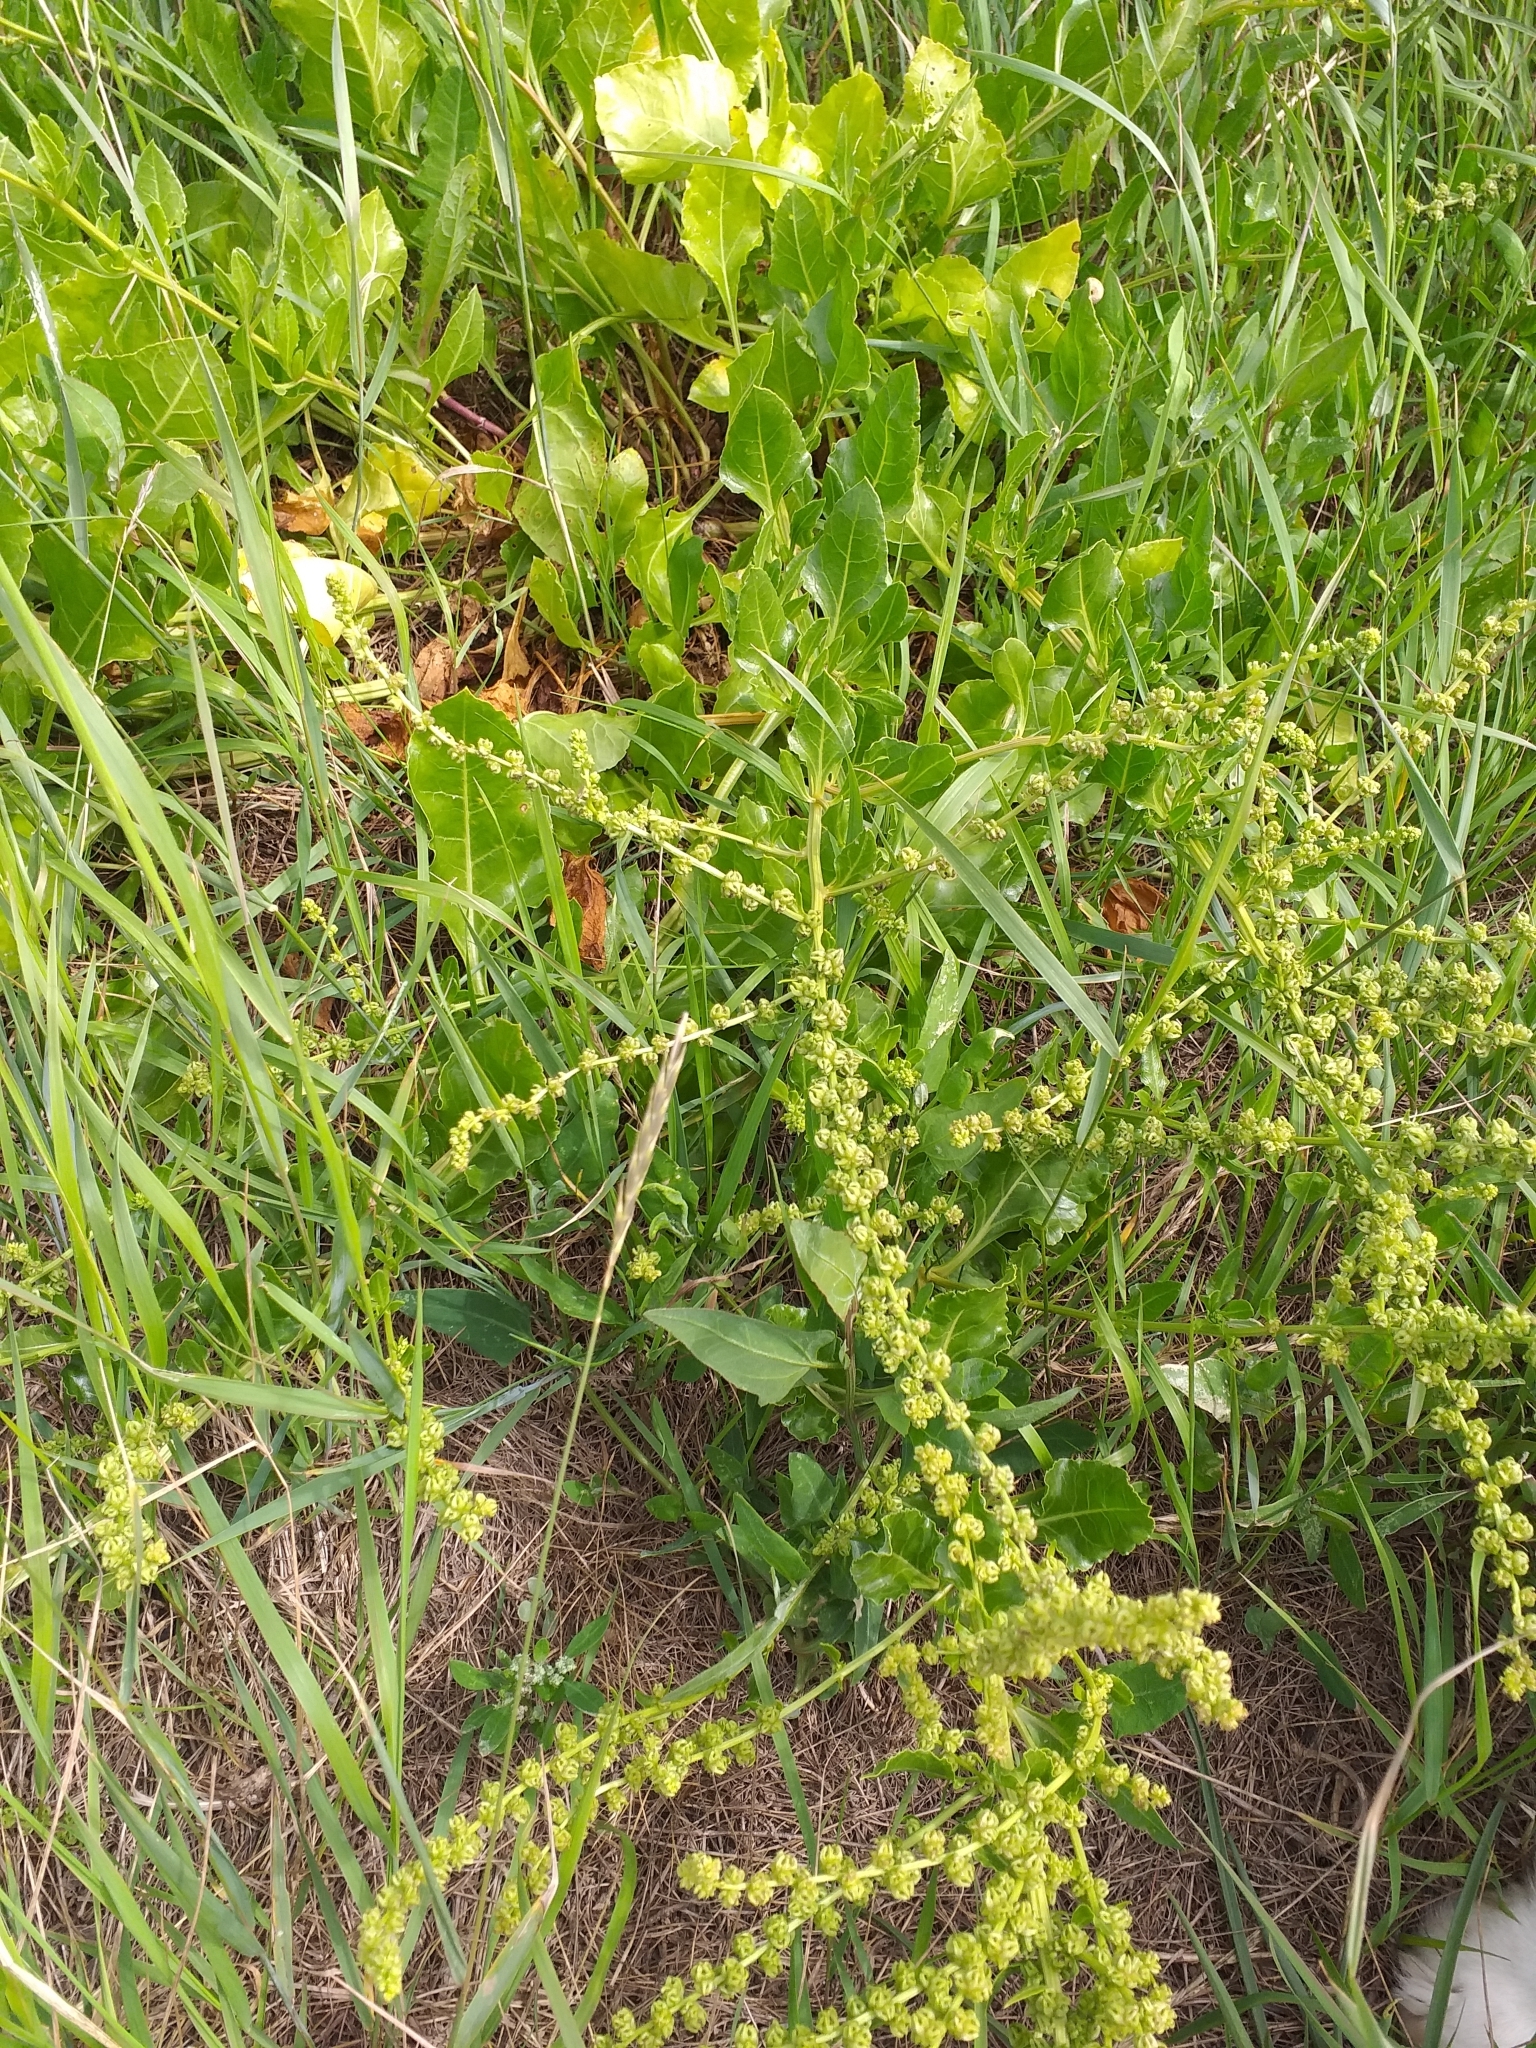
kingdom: Plantae
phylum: Tracheophyta
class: Magnoliopsida
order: Caryophyllales
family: Amaranthaceae
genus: Beta
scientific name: Beta vulgaris
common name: Beet
